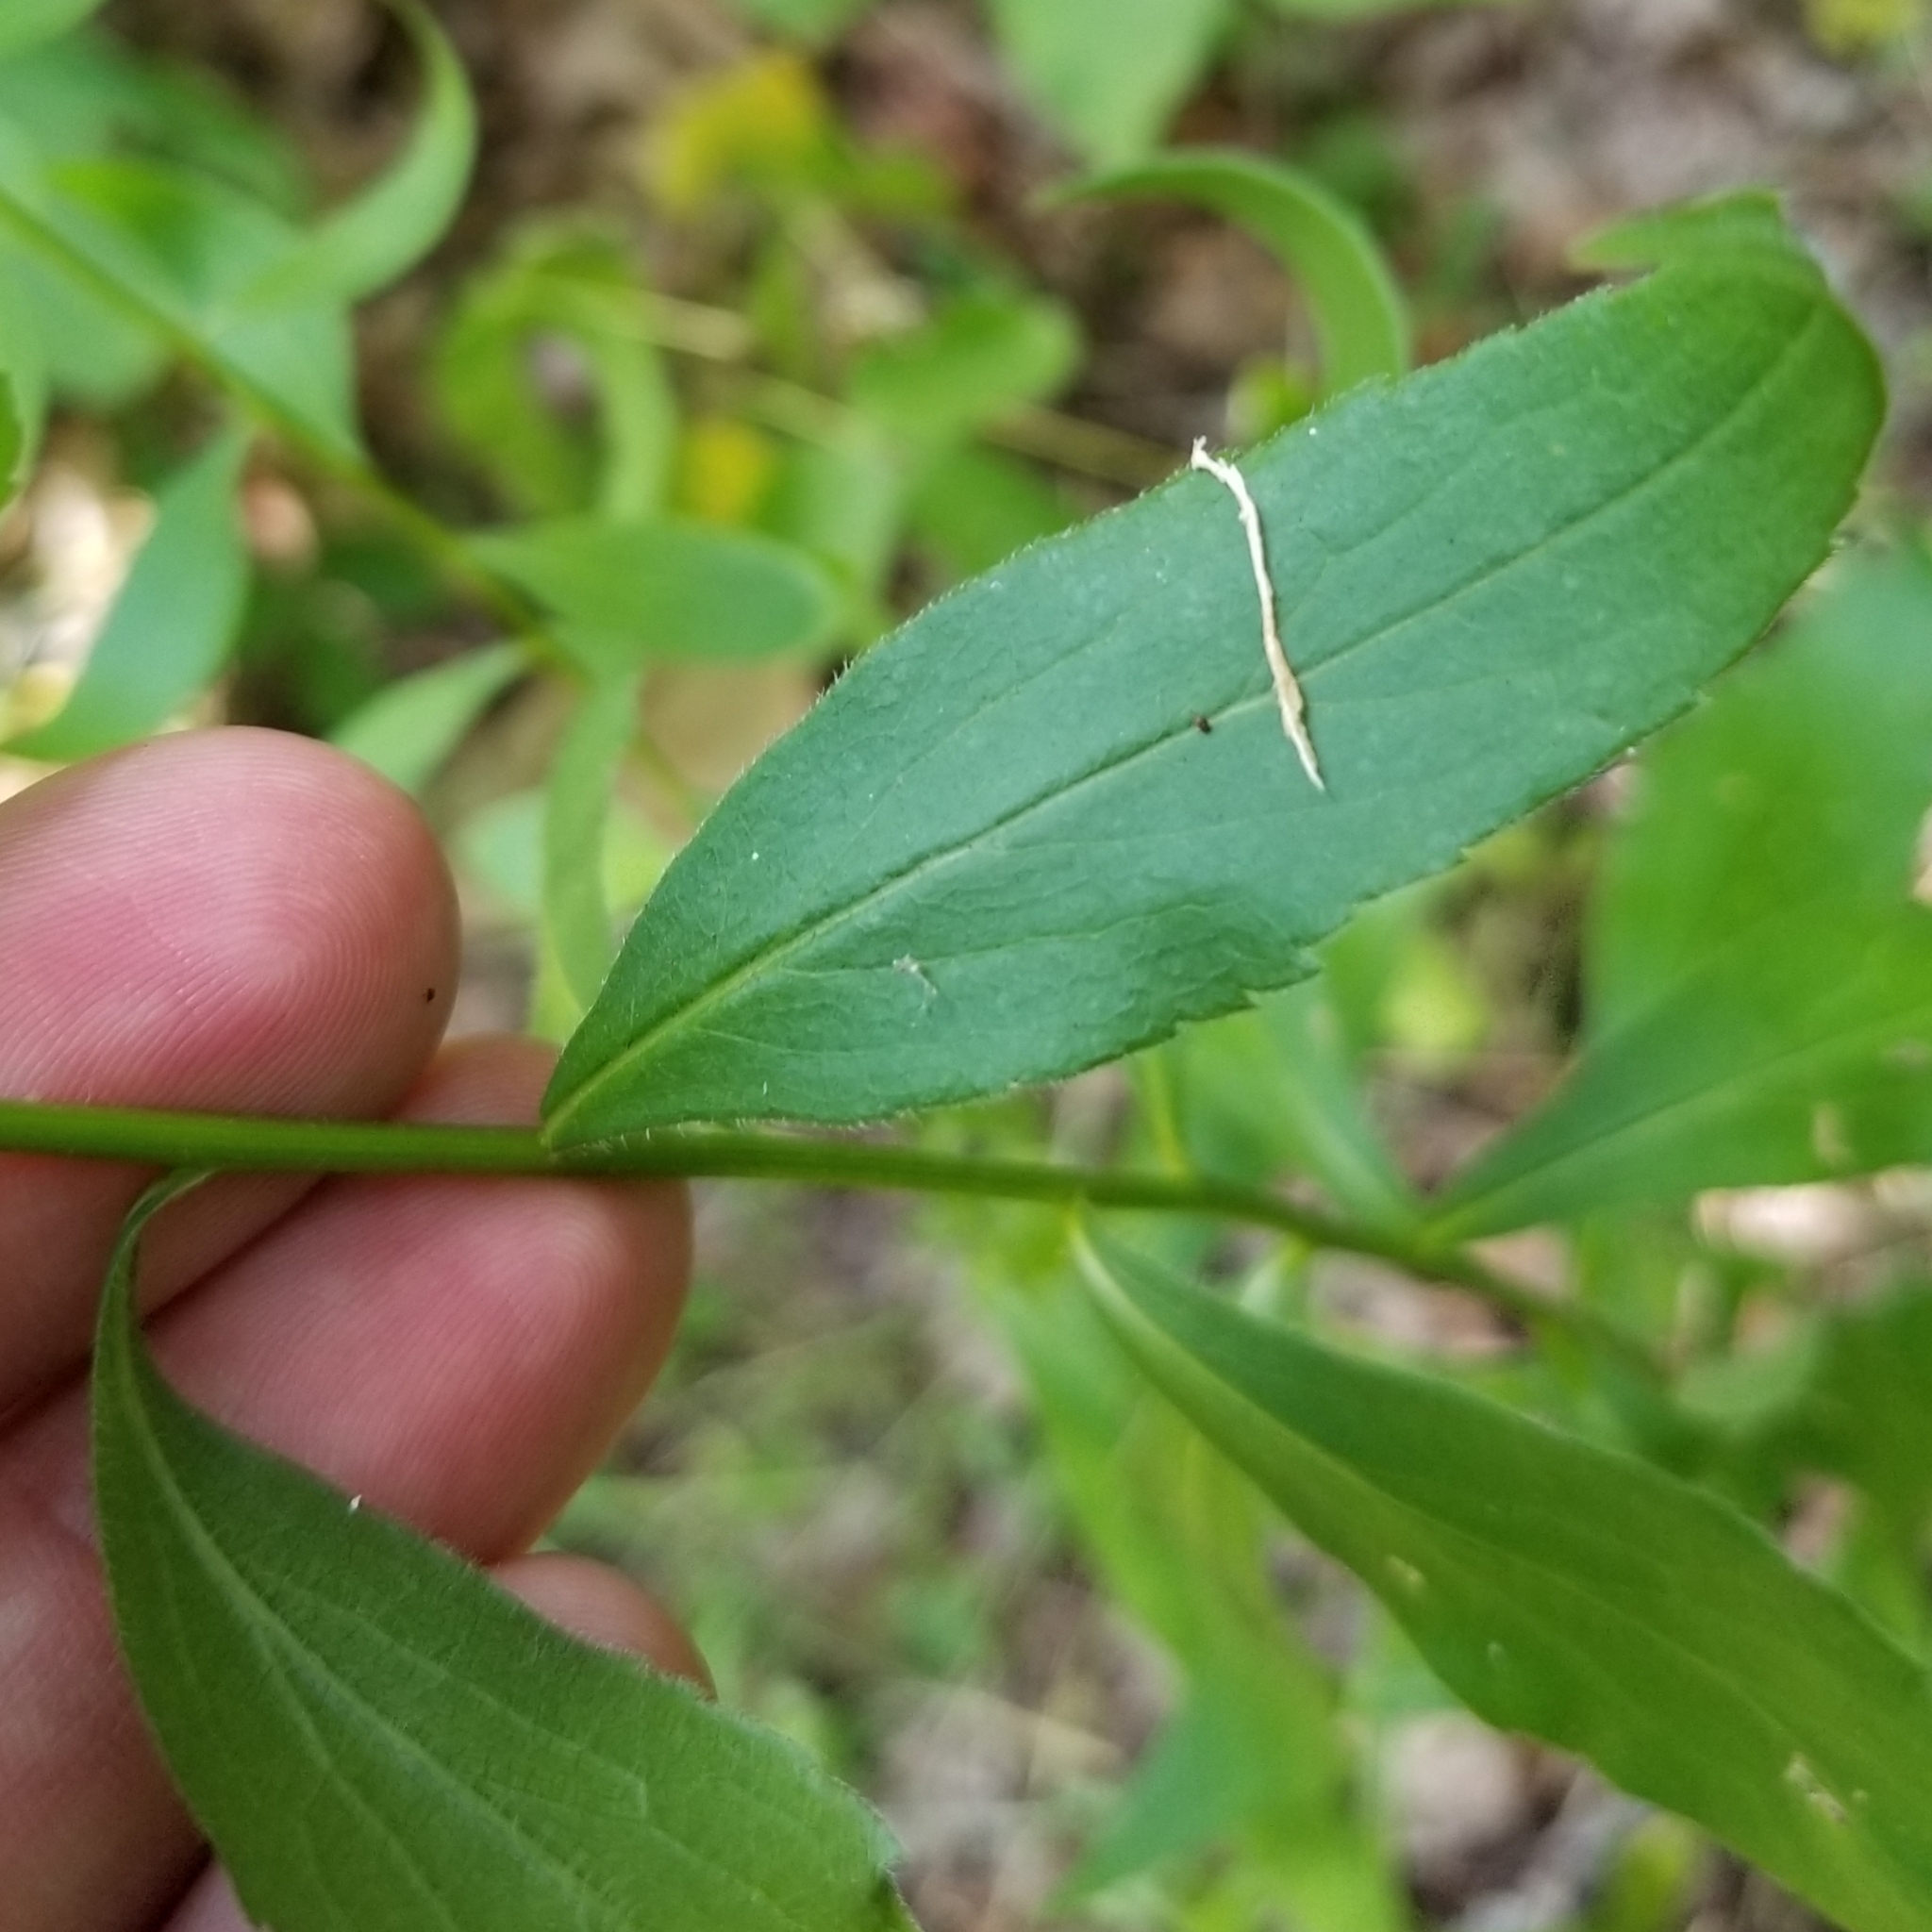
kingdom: Plantae
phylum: Tracheophyta
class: Magnoliopsida
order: Asterales
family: Asteraceae
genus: Solidago
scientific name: Solidago ulmifolia
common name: Elm-leaf goldenrod
